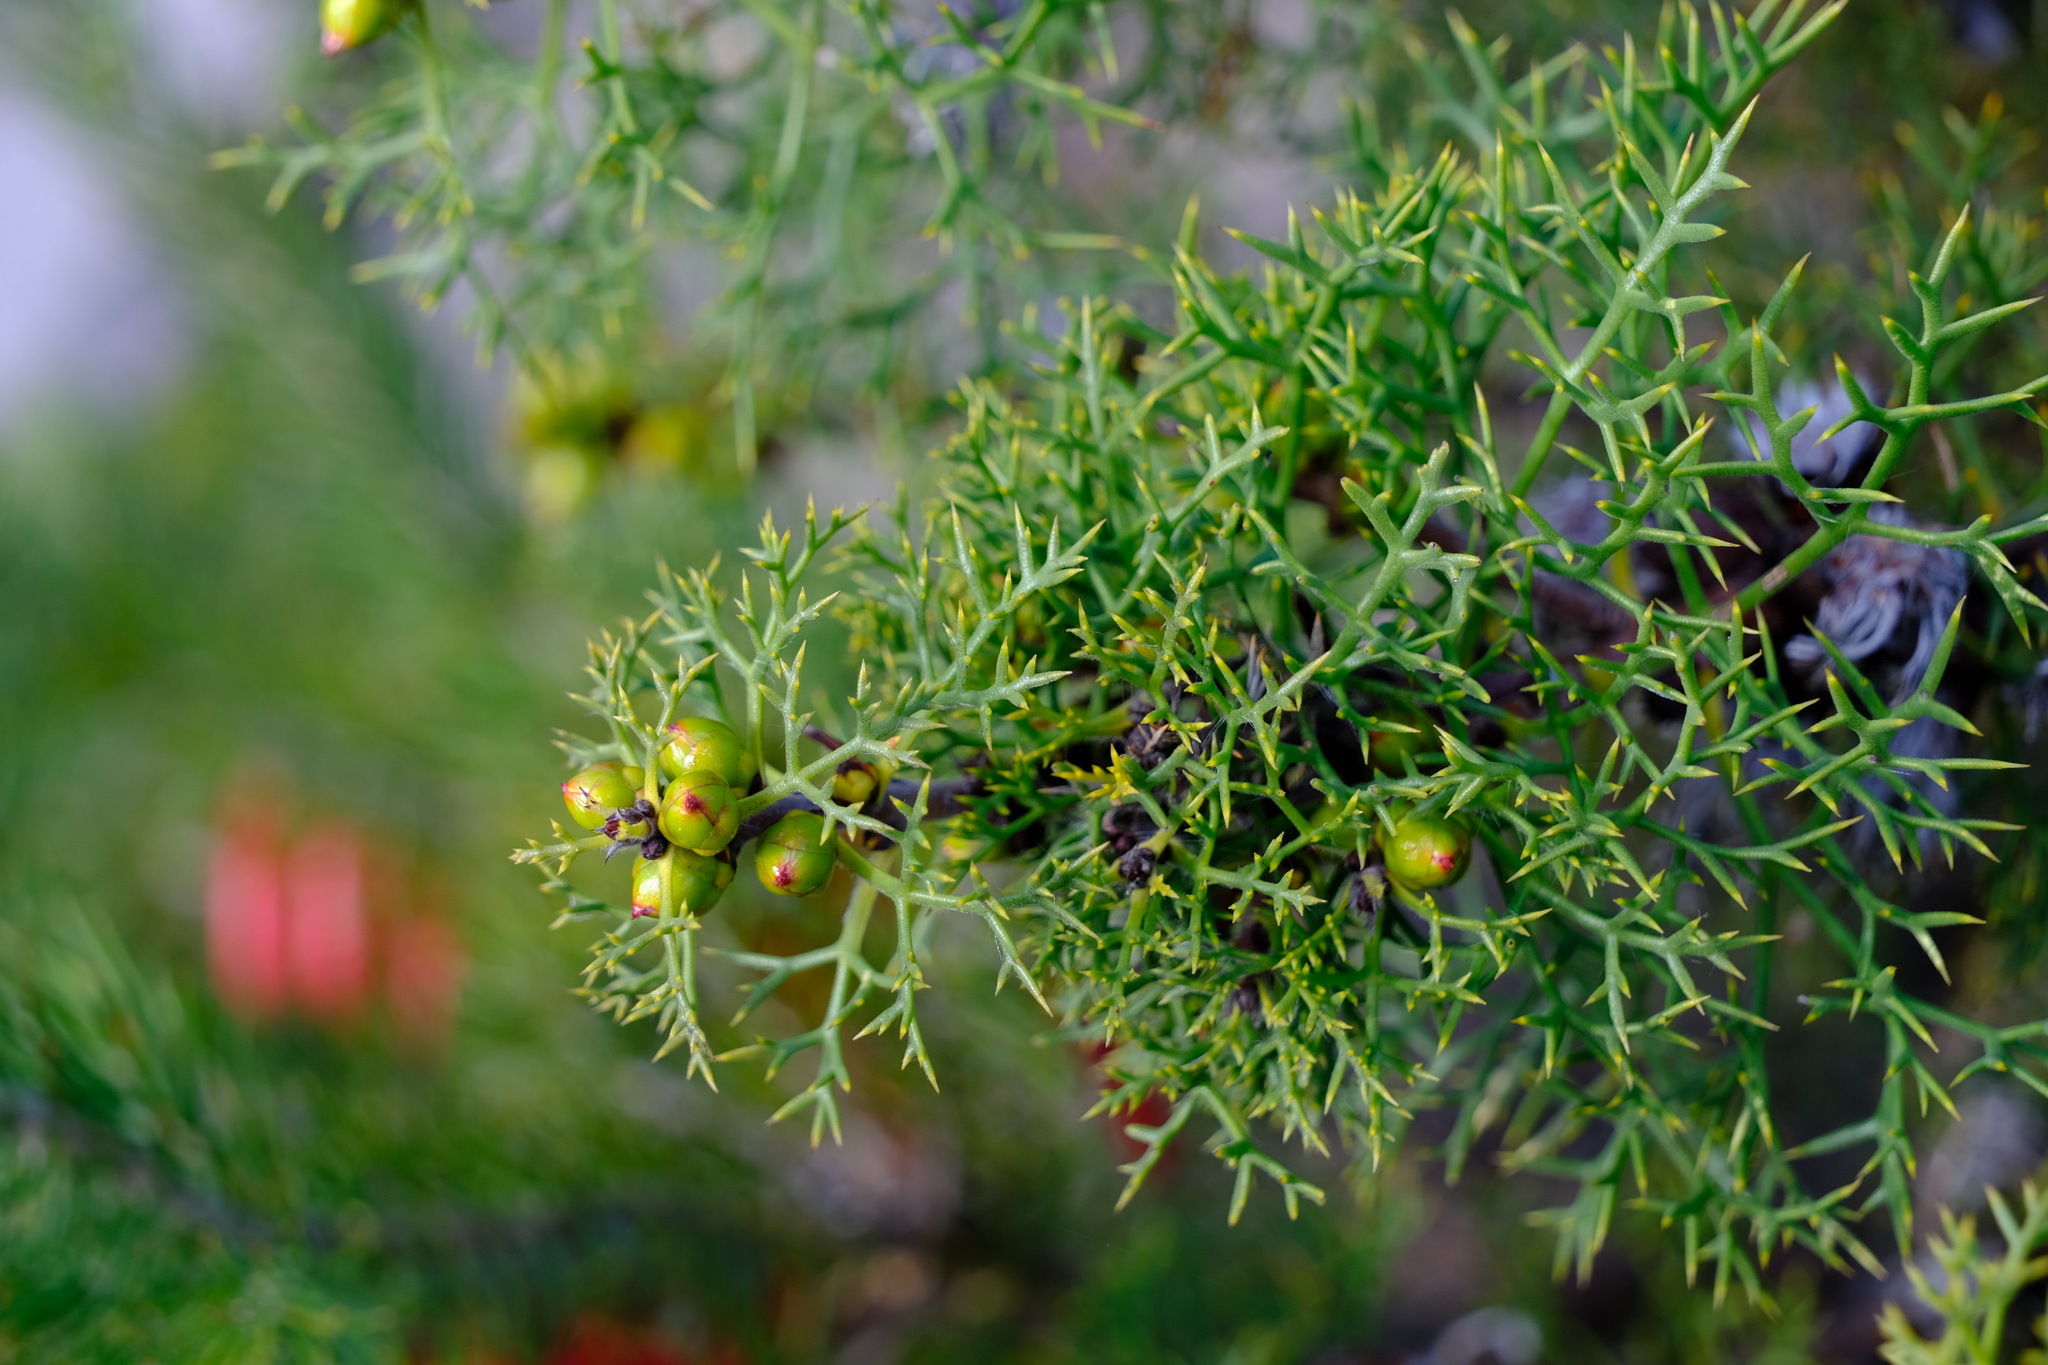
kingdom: Plantae
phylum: Tracheophyta
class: Magnoliopsida
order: Proteales
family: Proteaceae
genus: Petrophile
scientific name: Petrophile serruriae
